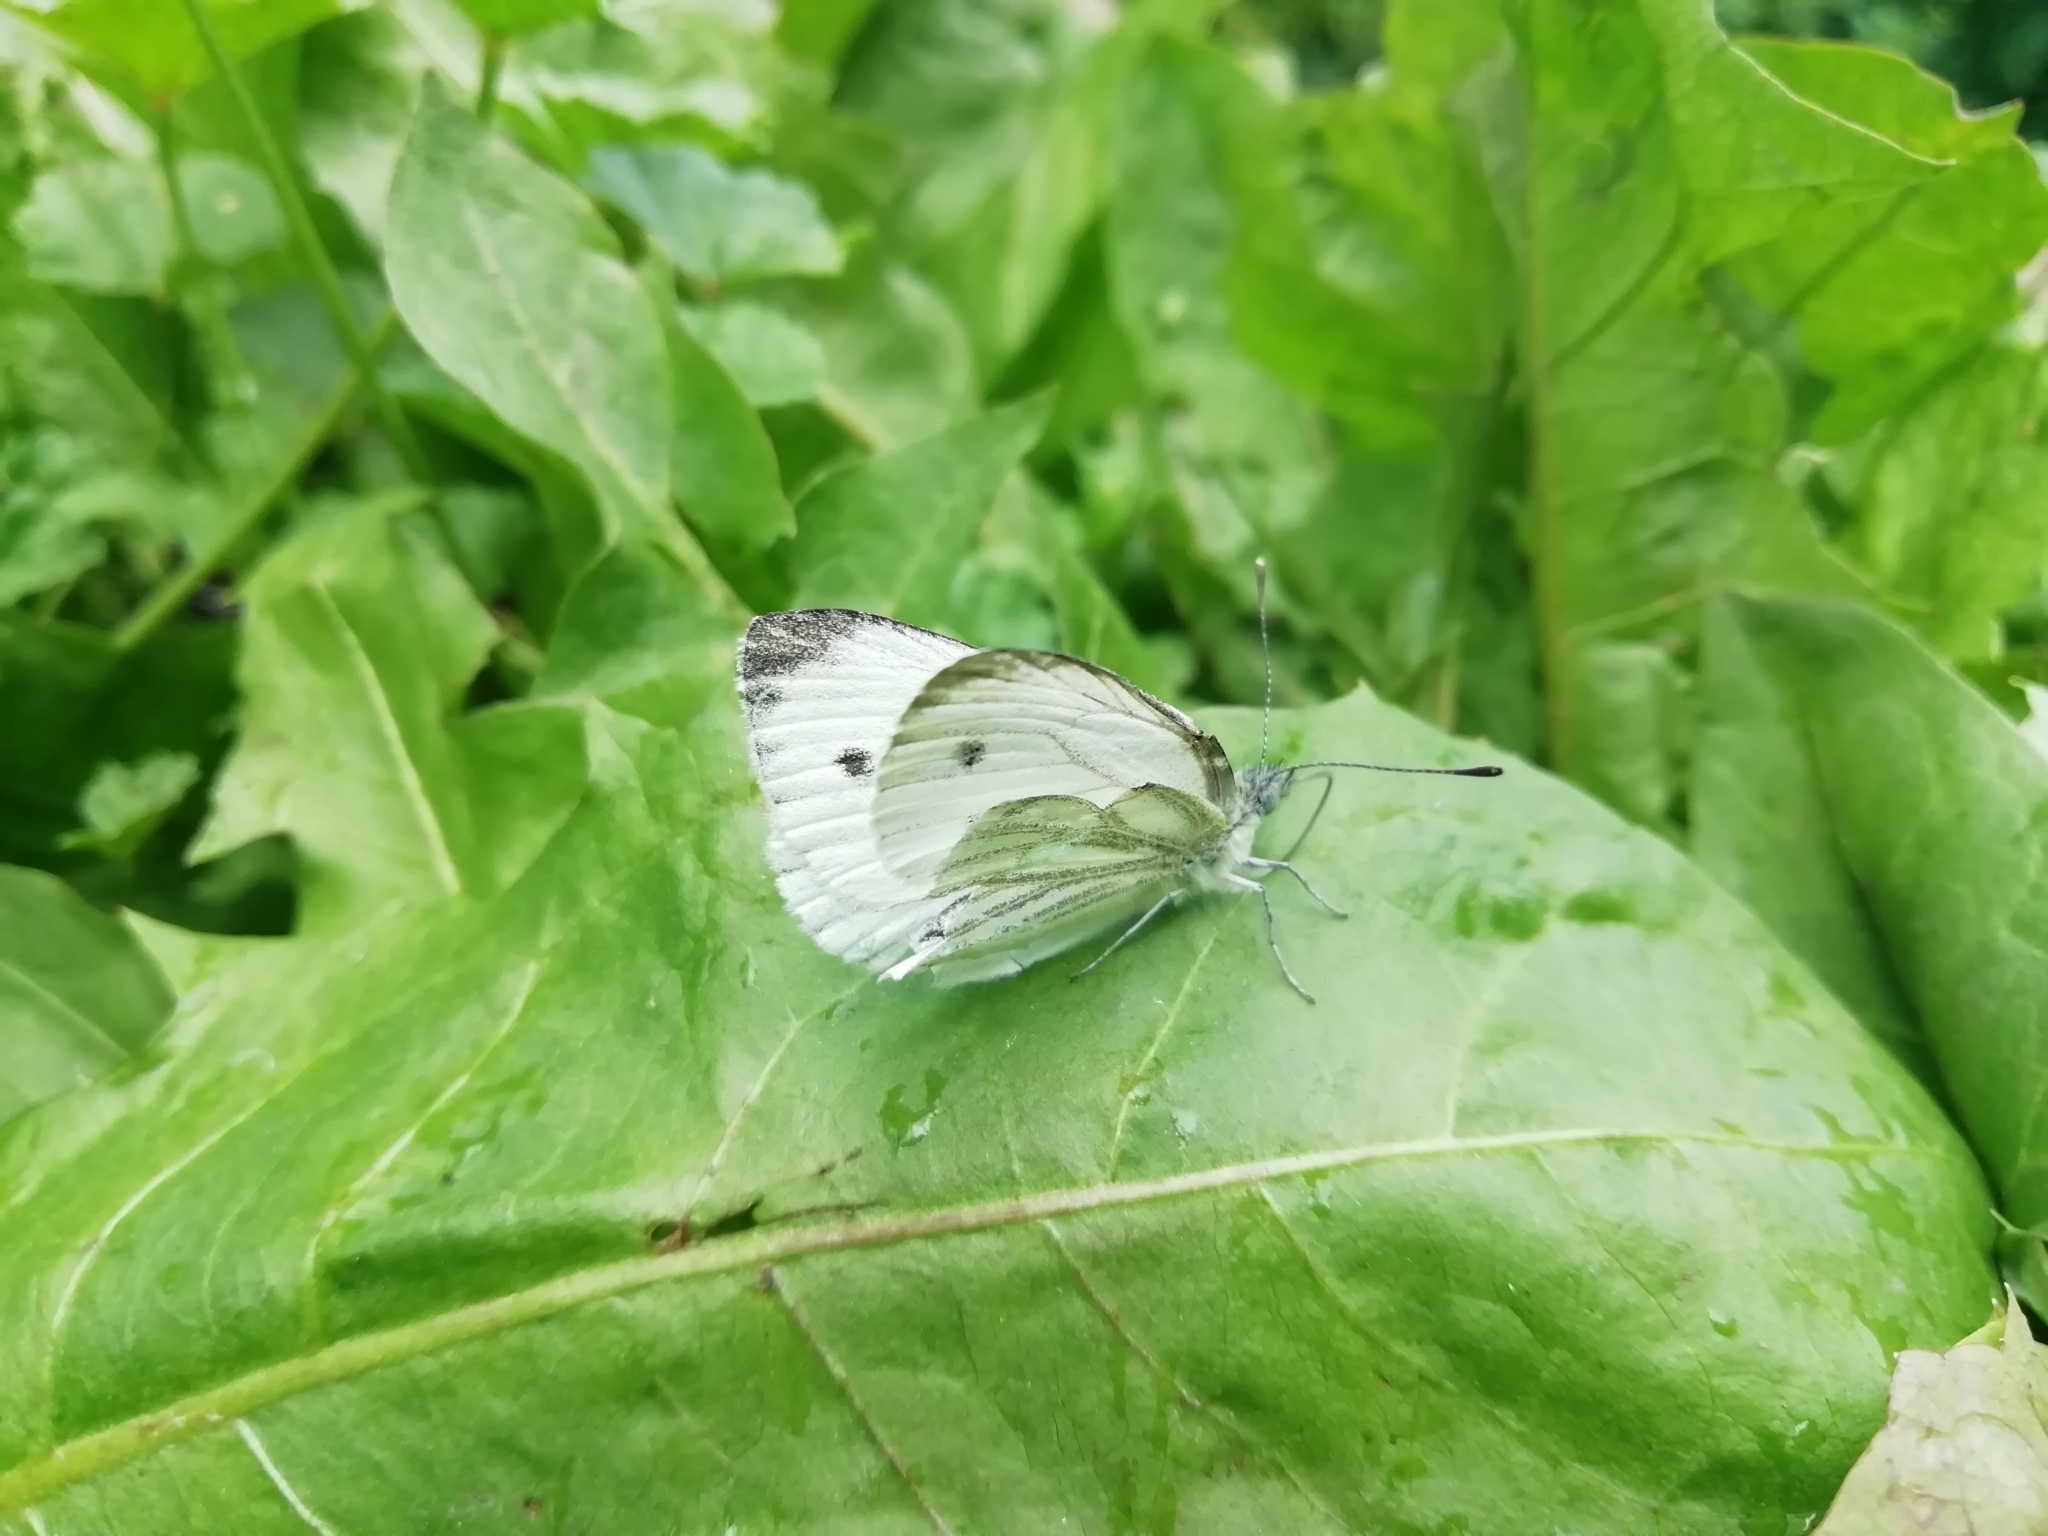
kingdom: Animalia
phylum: Arthropoda
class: Insecta
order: Lepidoptera
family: Pieridae
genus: Pieris
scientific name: Pieris napi
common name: Green-veined white
